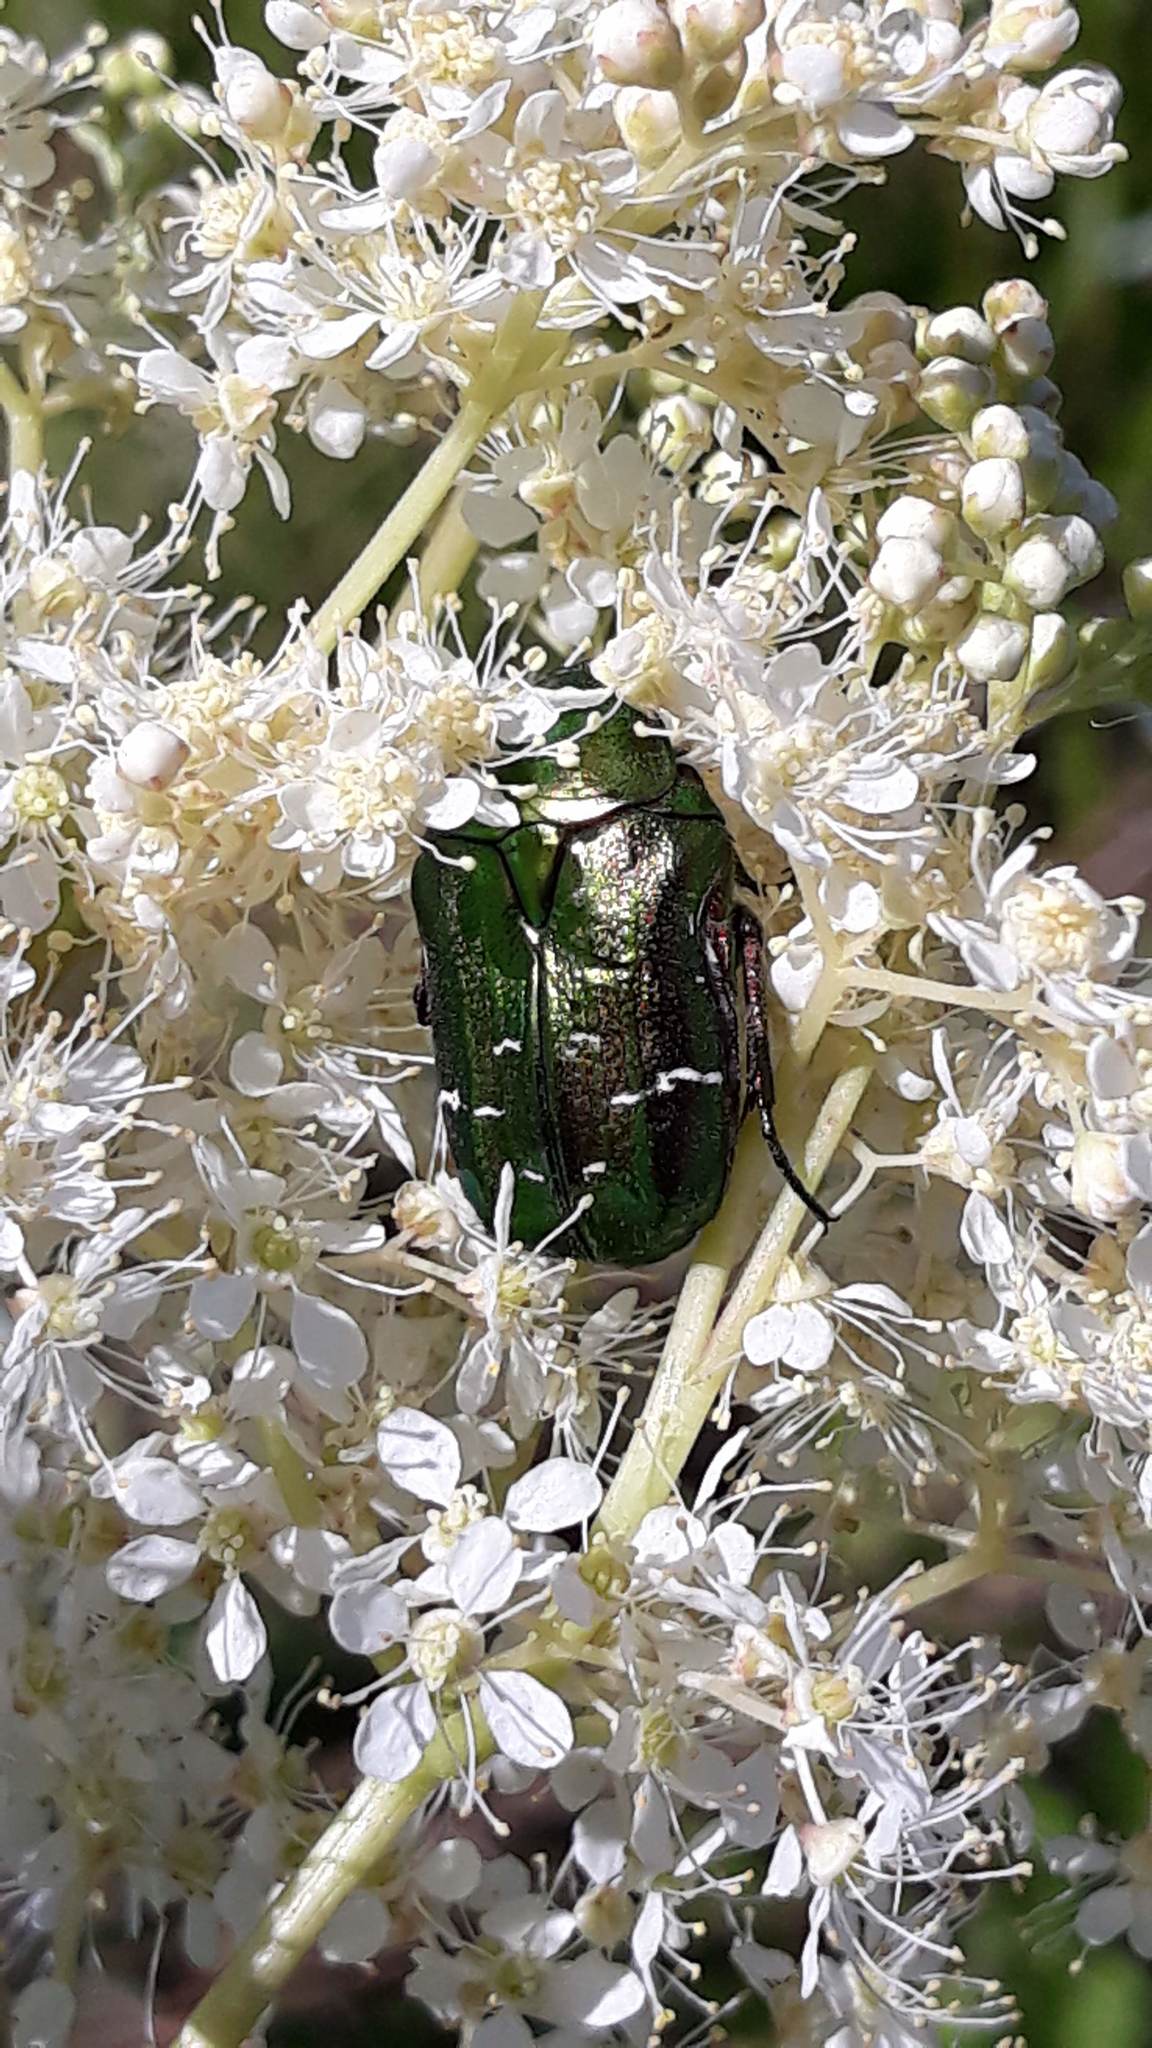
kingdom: Animalia
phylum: Arthropoda
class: Insecta
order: Coleoptera
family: Scarabaeidae
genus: Cetonia
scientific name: Cetonia aurata
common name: Rose chafer
